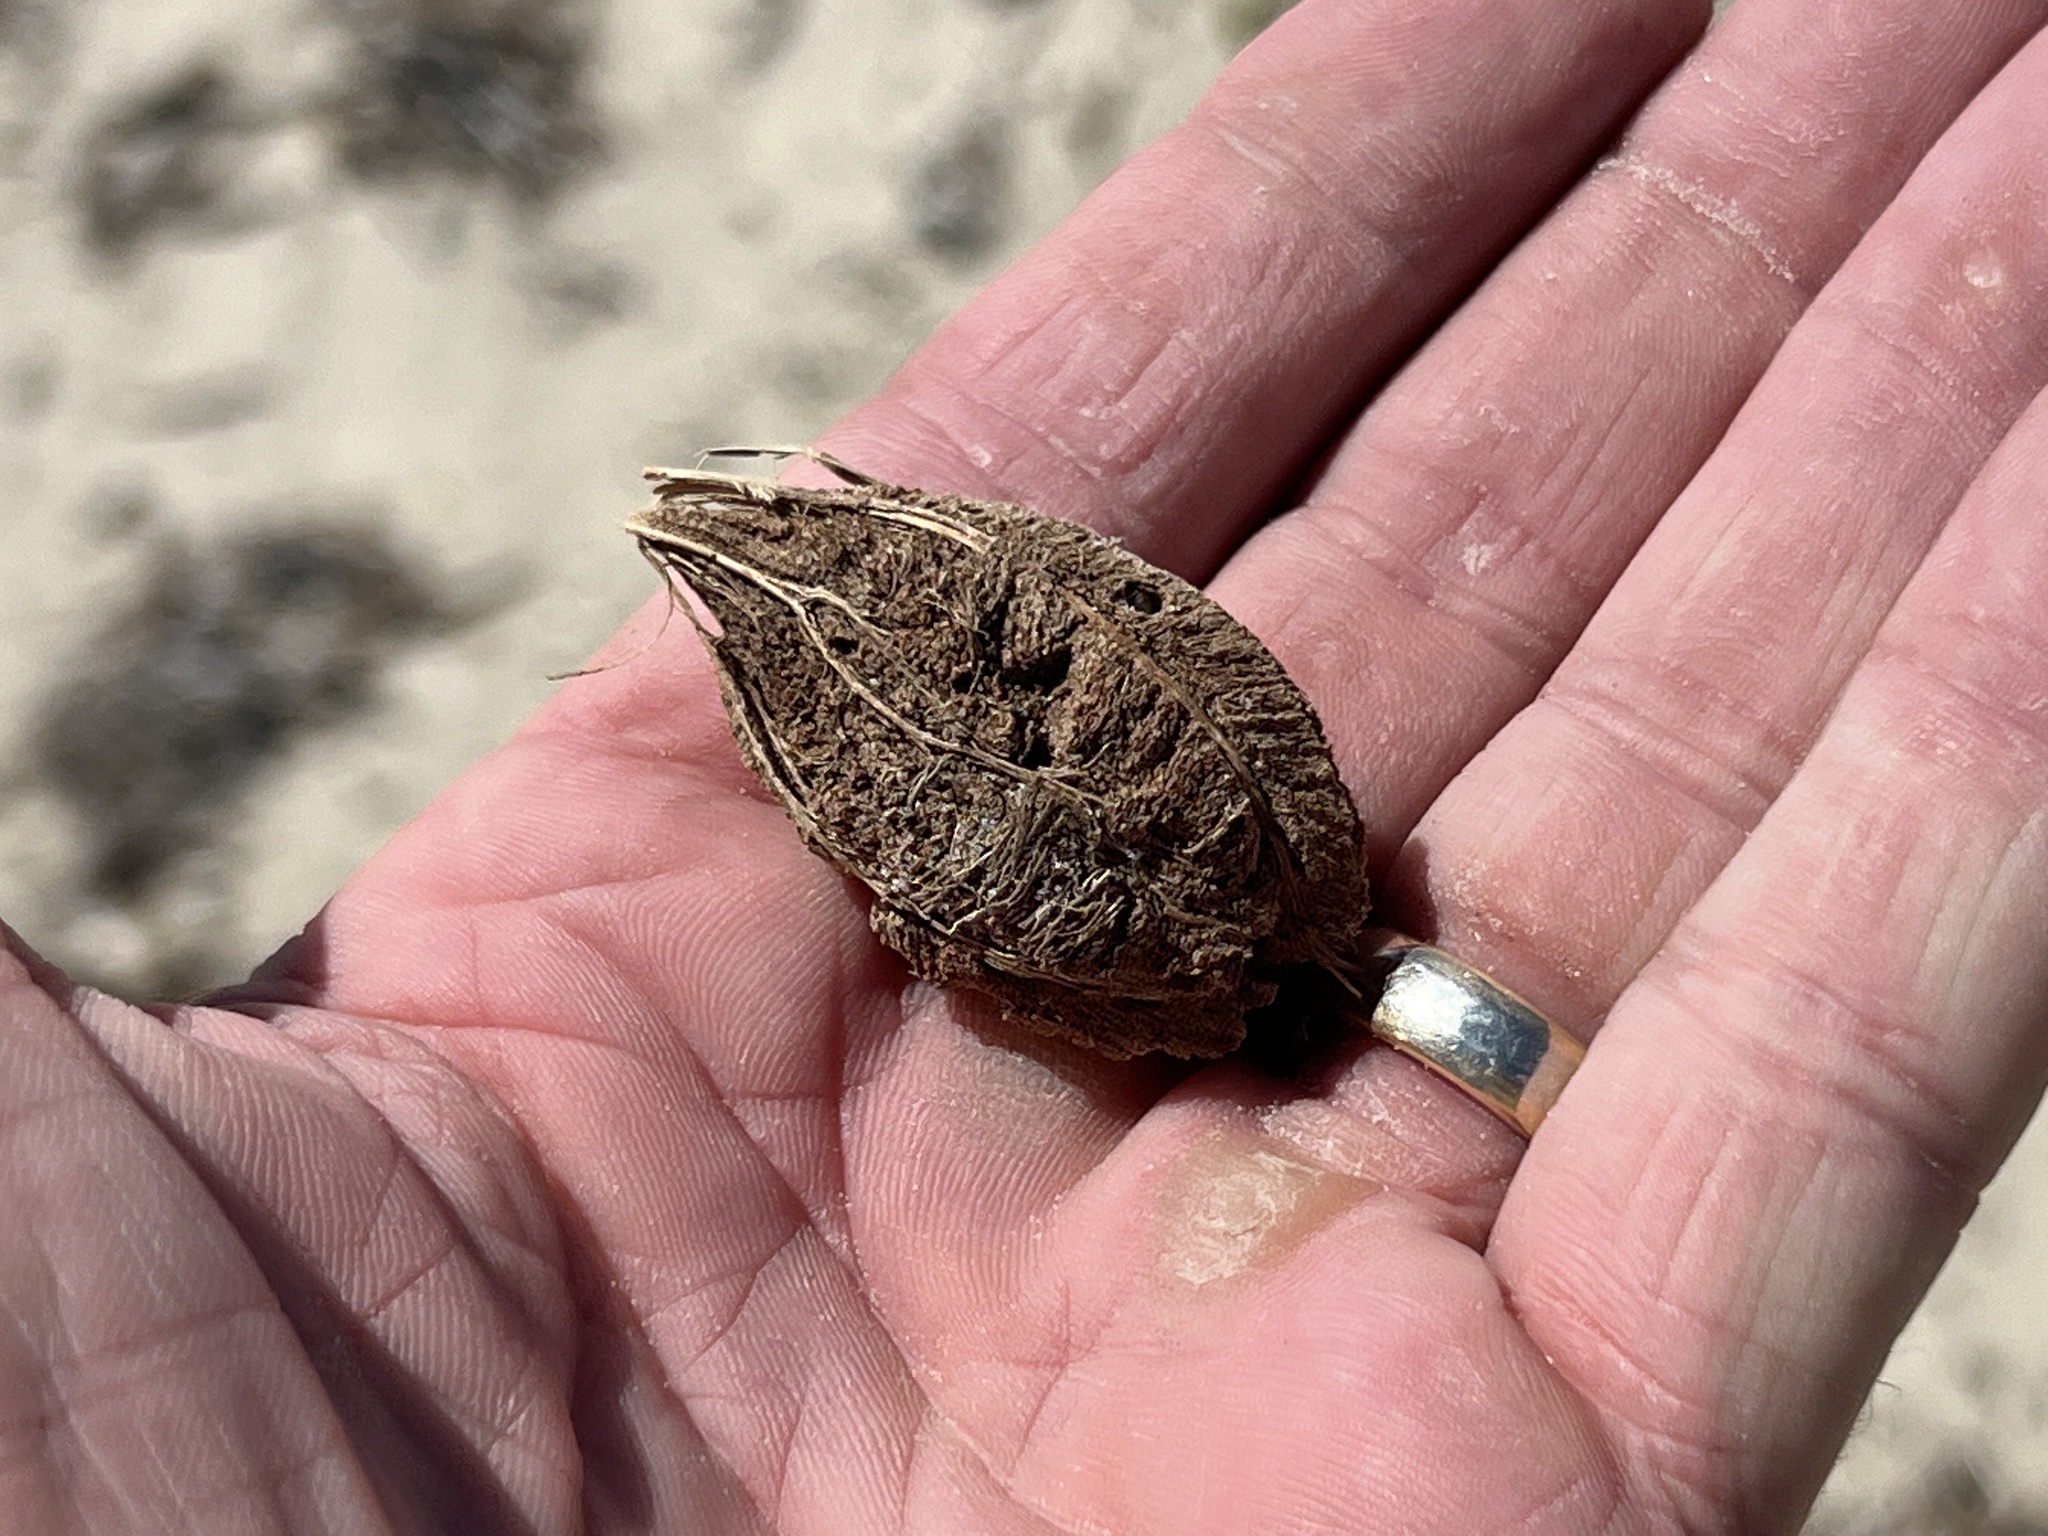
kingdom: Plantae
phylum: Tracheophyta
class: Magnoliopsida
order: Myrtales
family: Combretaceae
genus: Terminalia
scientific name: Terminalia catappa
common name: Tropical almond
